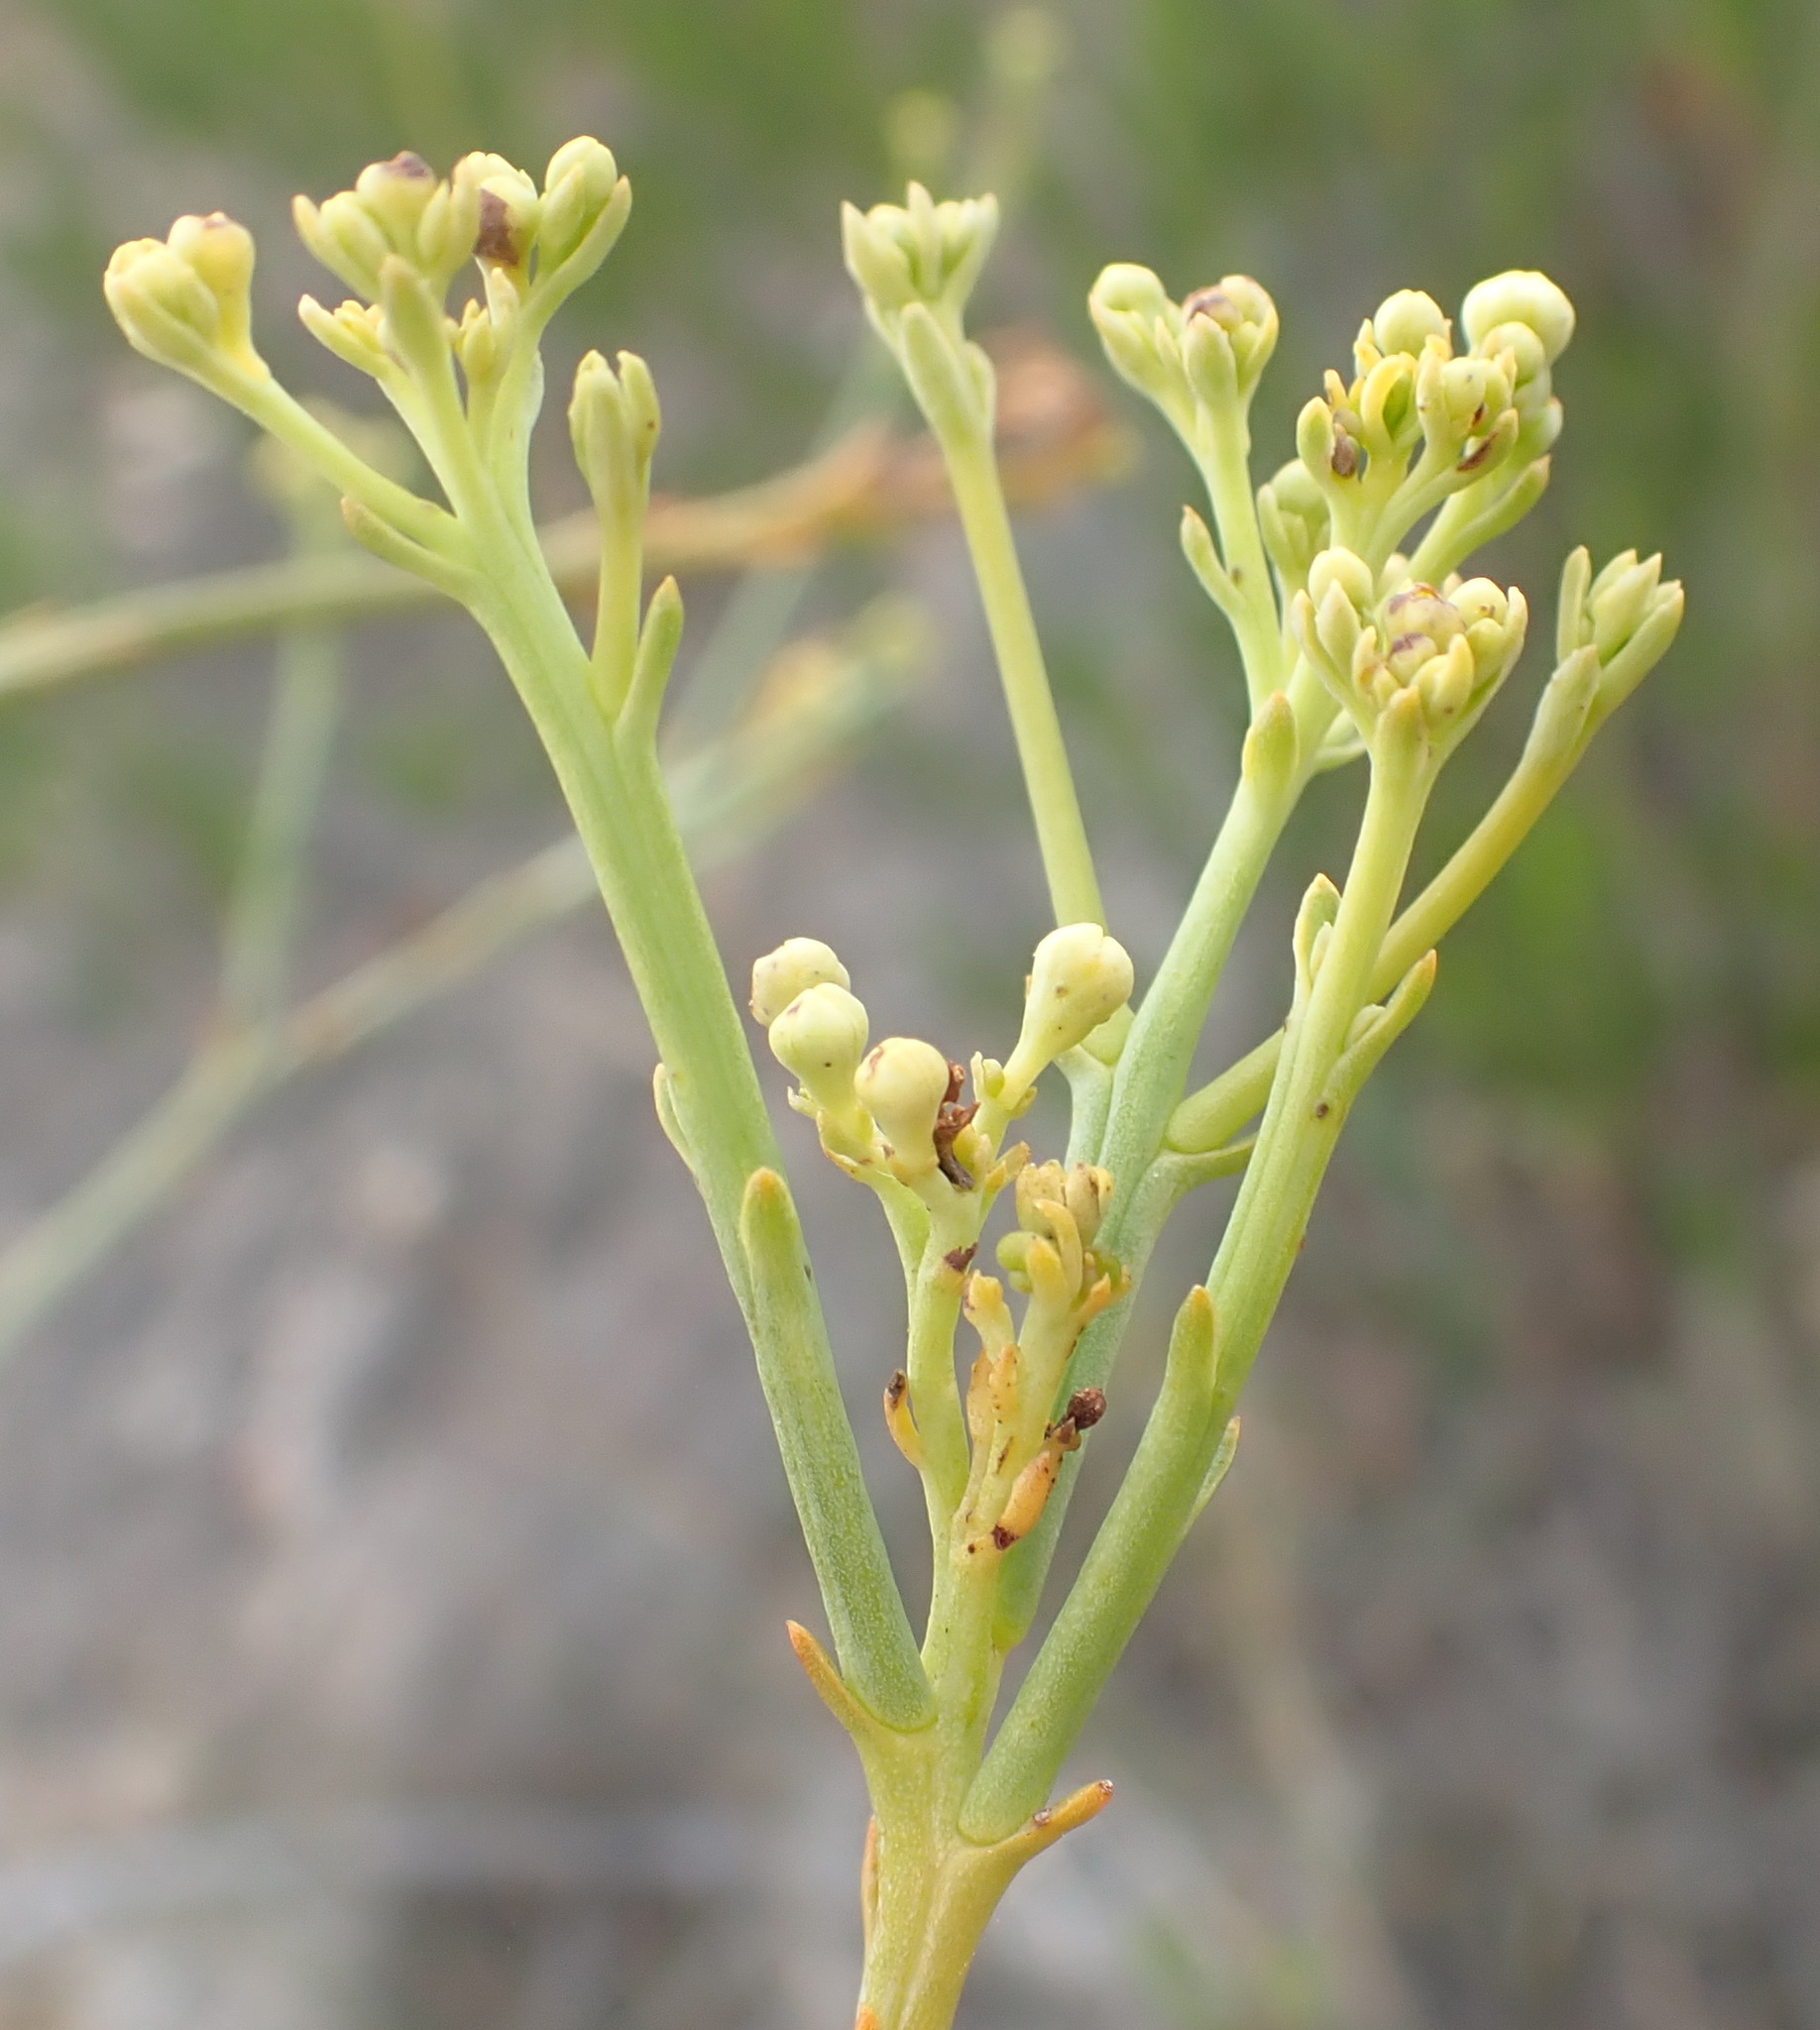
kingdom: Plantae
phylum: Tracheophyta
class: Magnoliopsida
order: Santalales
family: Thesiaceae
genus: Thesium
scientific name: Thesium strictum
